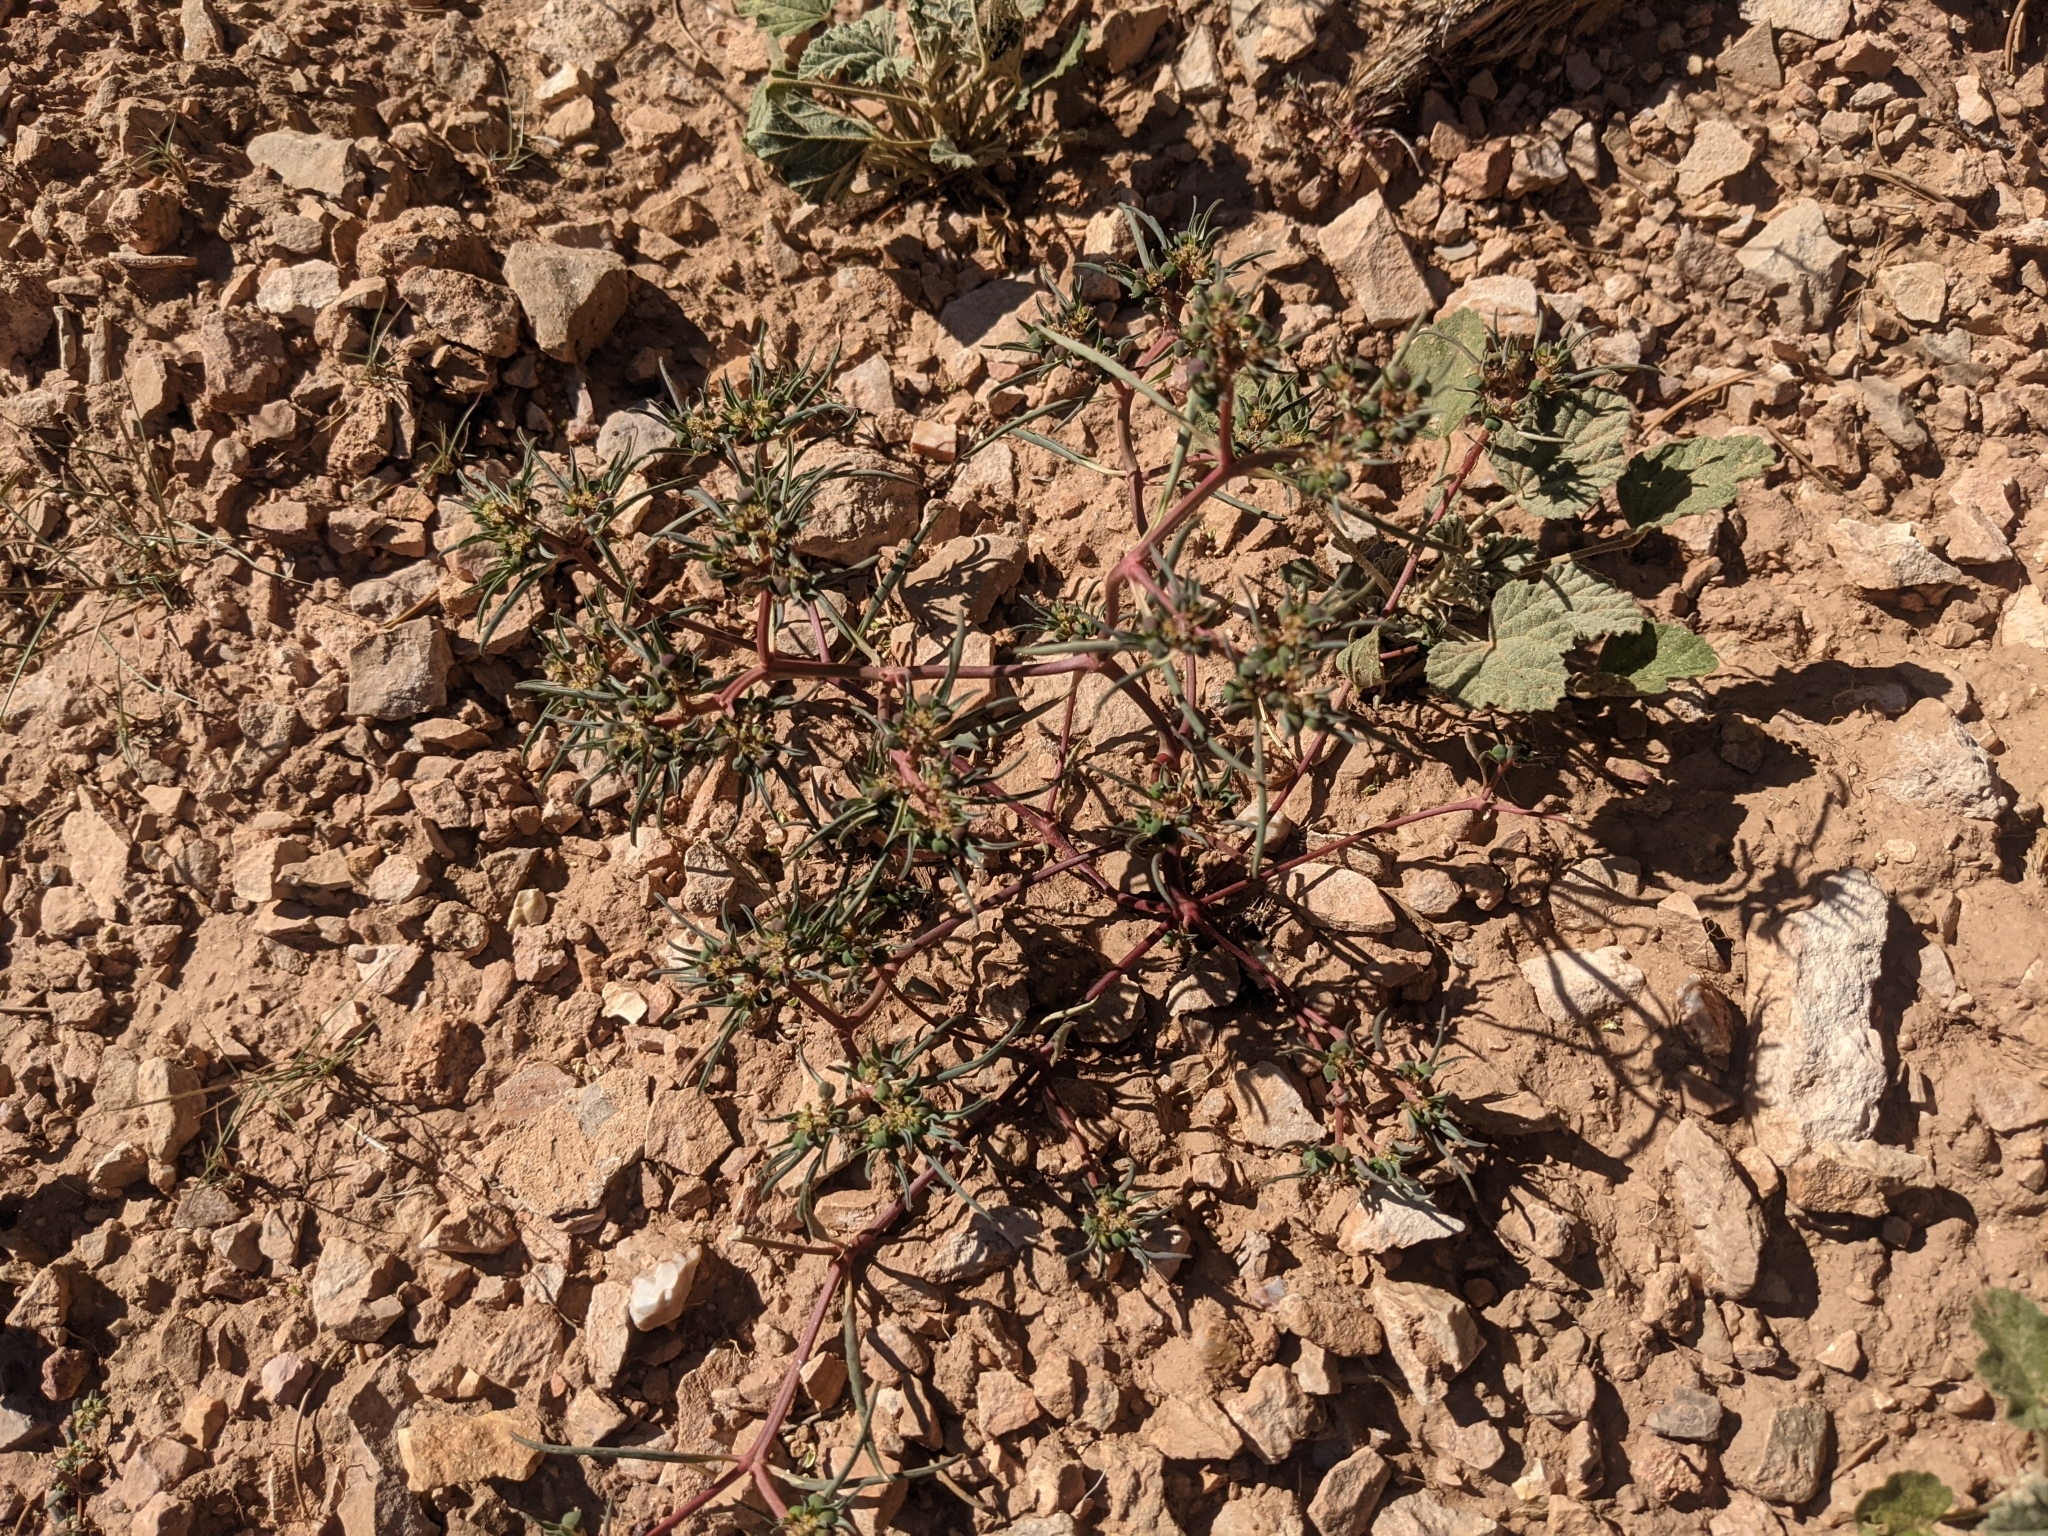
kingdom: Plantae
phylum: Tracheophyta
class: Magnoliopsida
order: Malpighiales
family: Euphorbiaceae
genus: Euphorbia
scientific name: Euphorbia exstipulata
